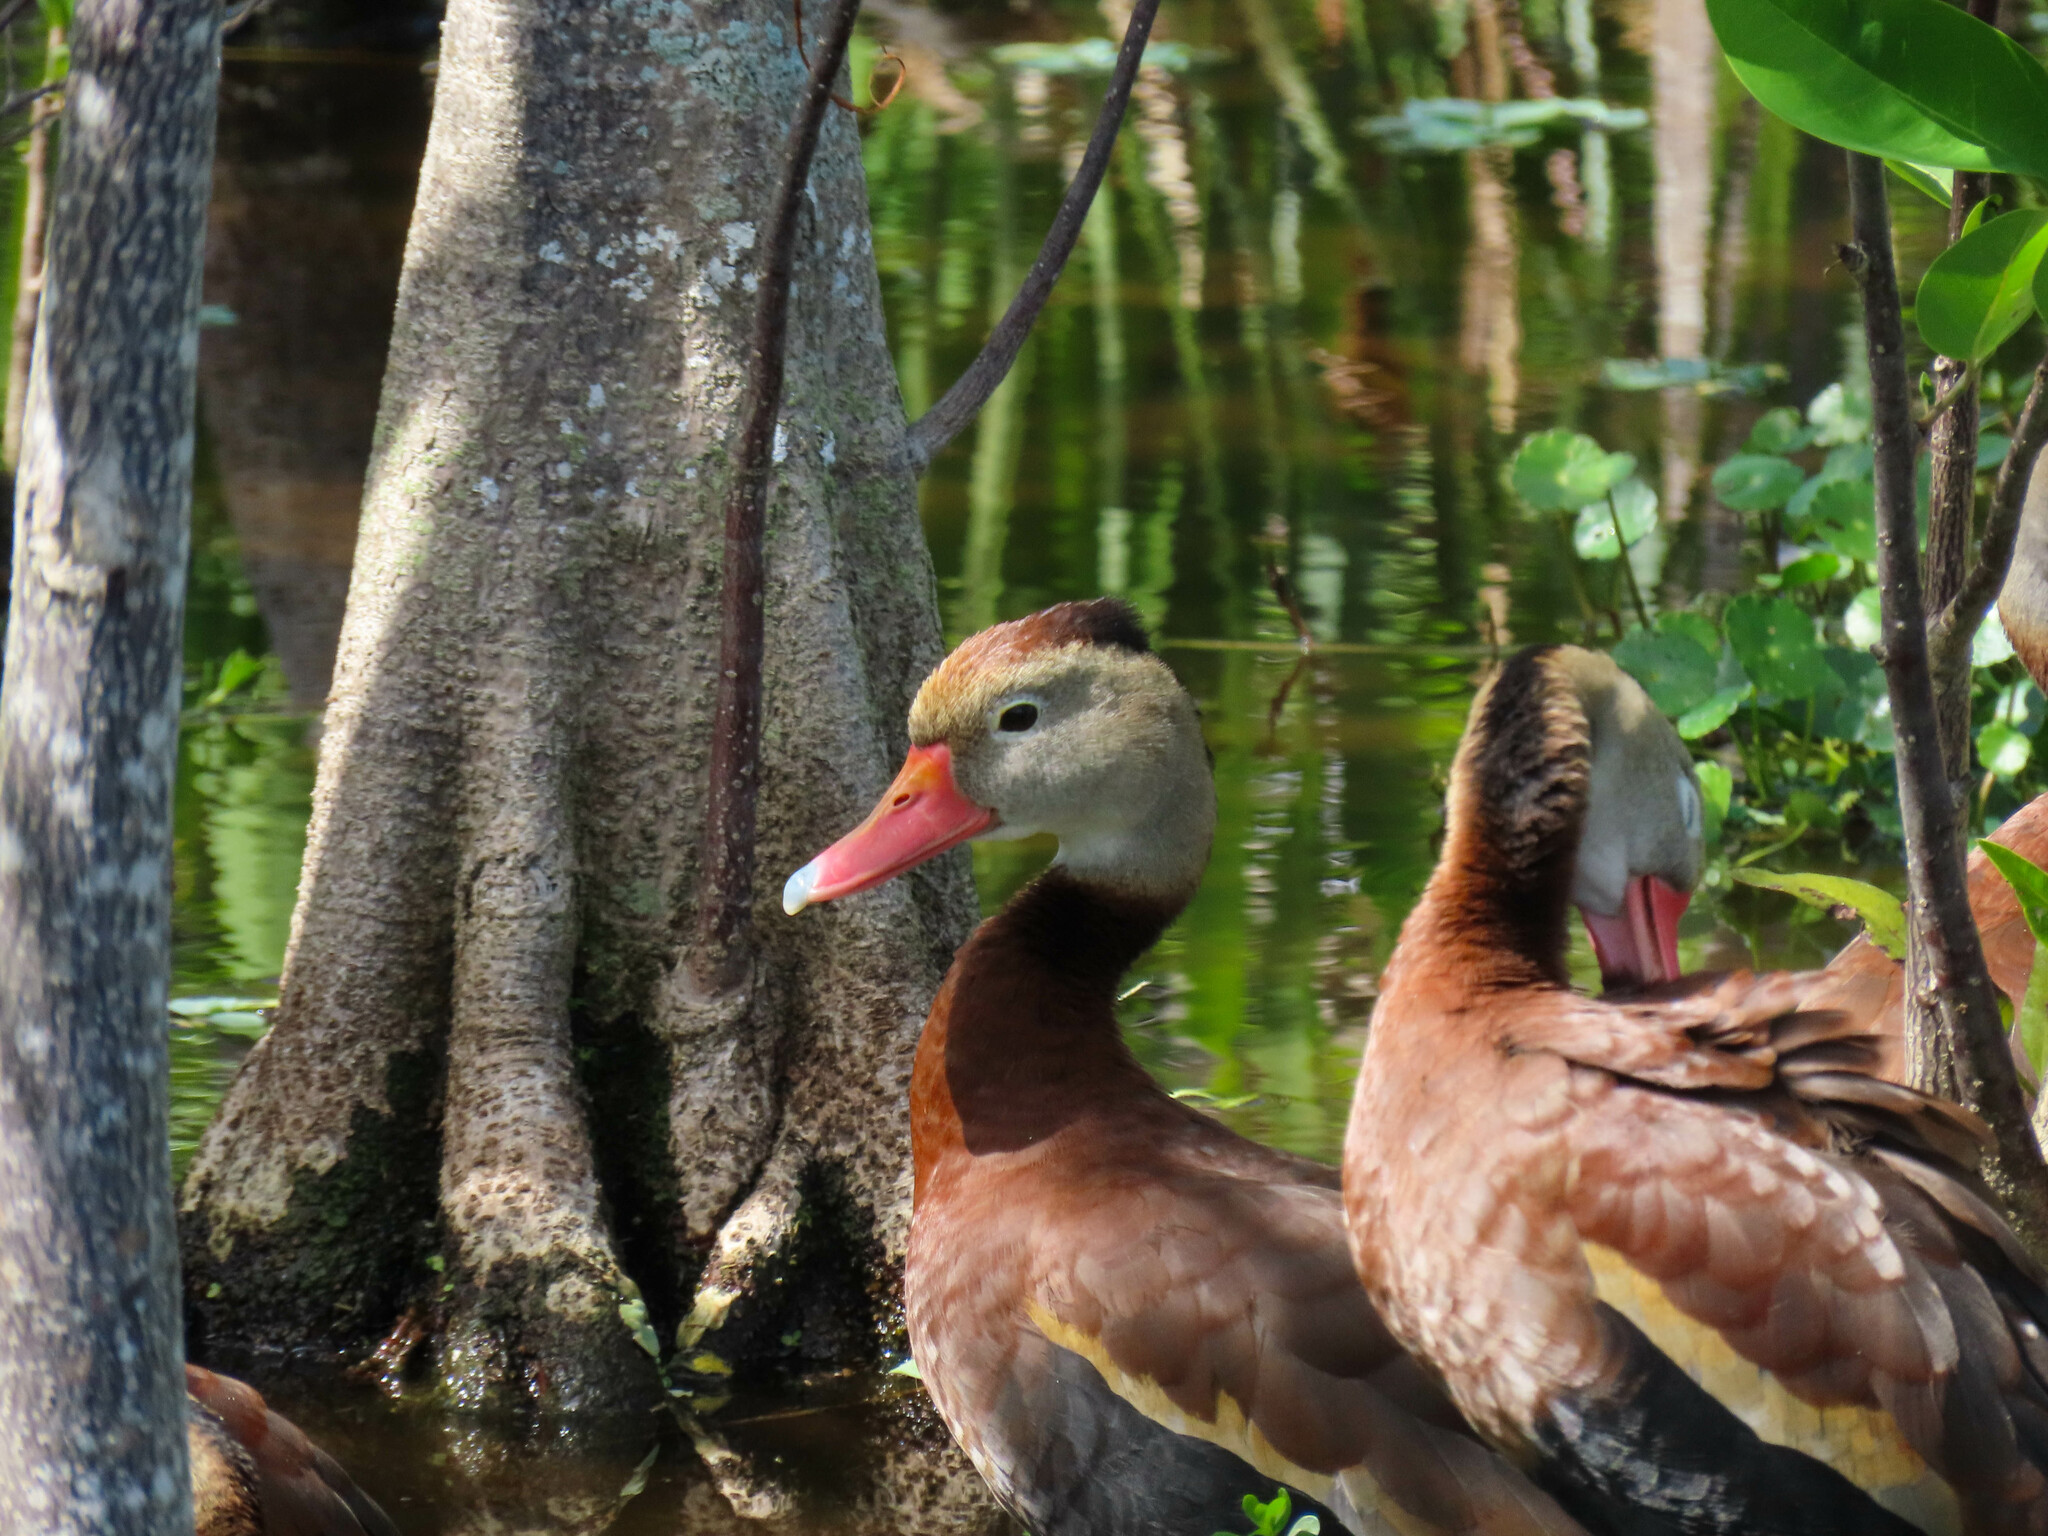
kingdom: Animalia
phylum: Chordata
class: Aves
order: Anseriformes
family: Anatidae
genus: Dendrocygna
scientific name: Dendrocygna autumnalis
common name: Black-bellied whistling duck
